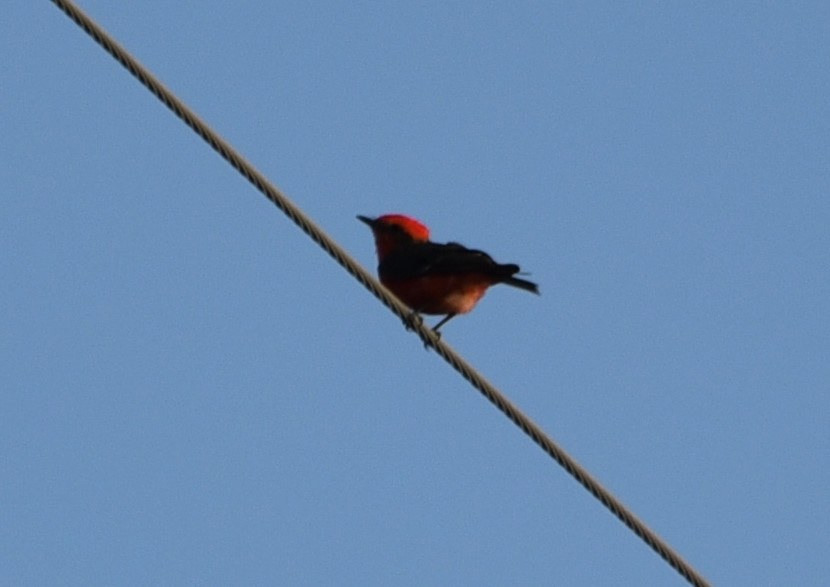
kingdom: Animalia
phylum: Chordata
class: Aves
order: Passeriformes
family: Tyrannidae
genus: Pyrocephalus
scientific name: Pyrocephalus rubinus
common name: Vermilion flycatcher
